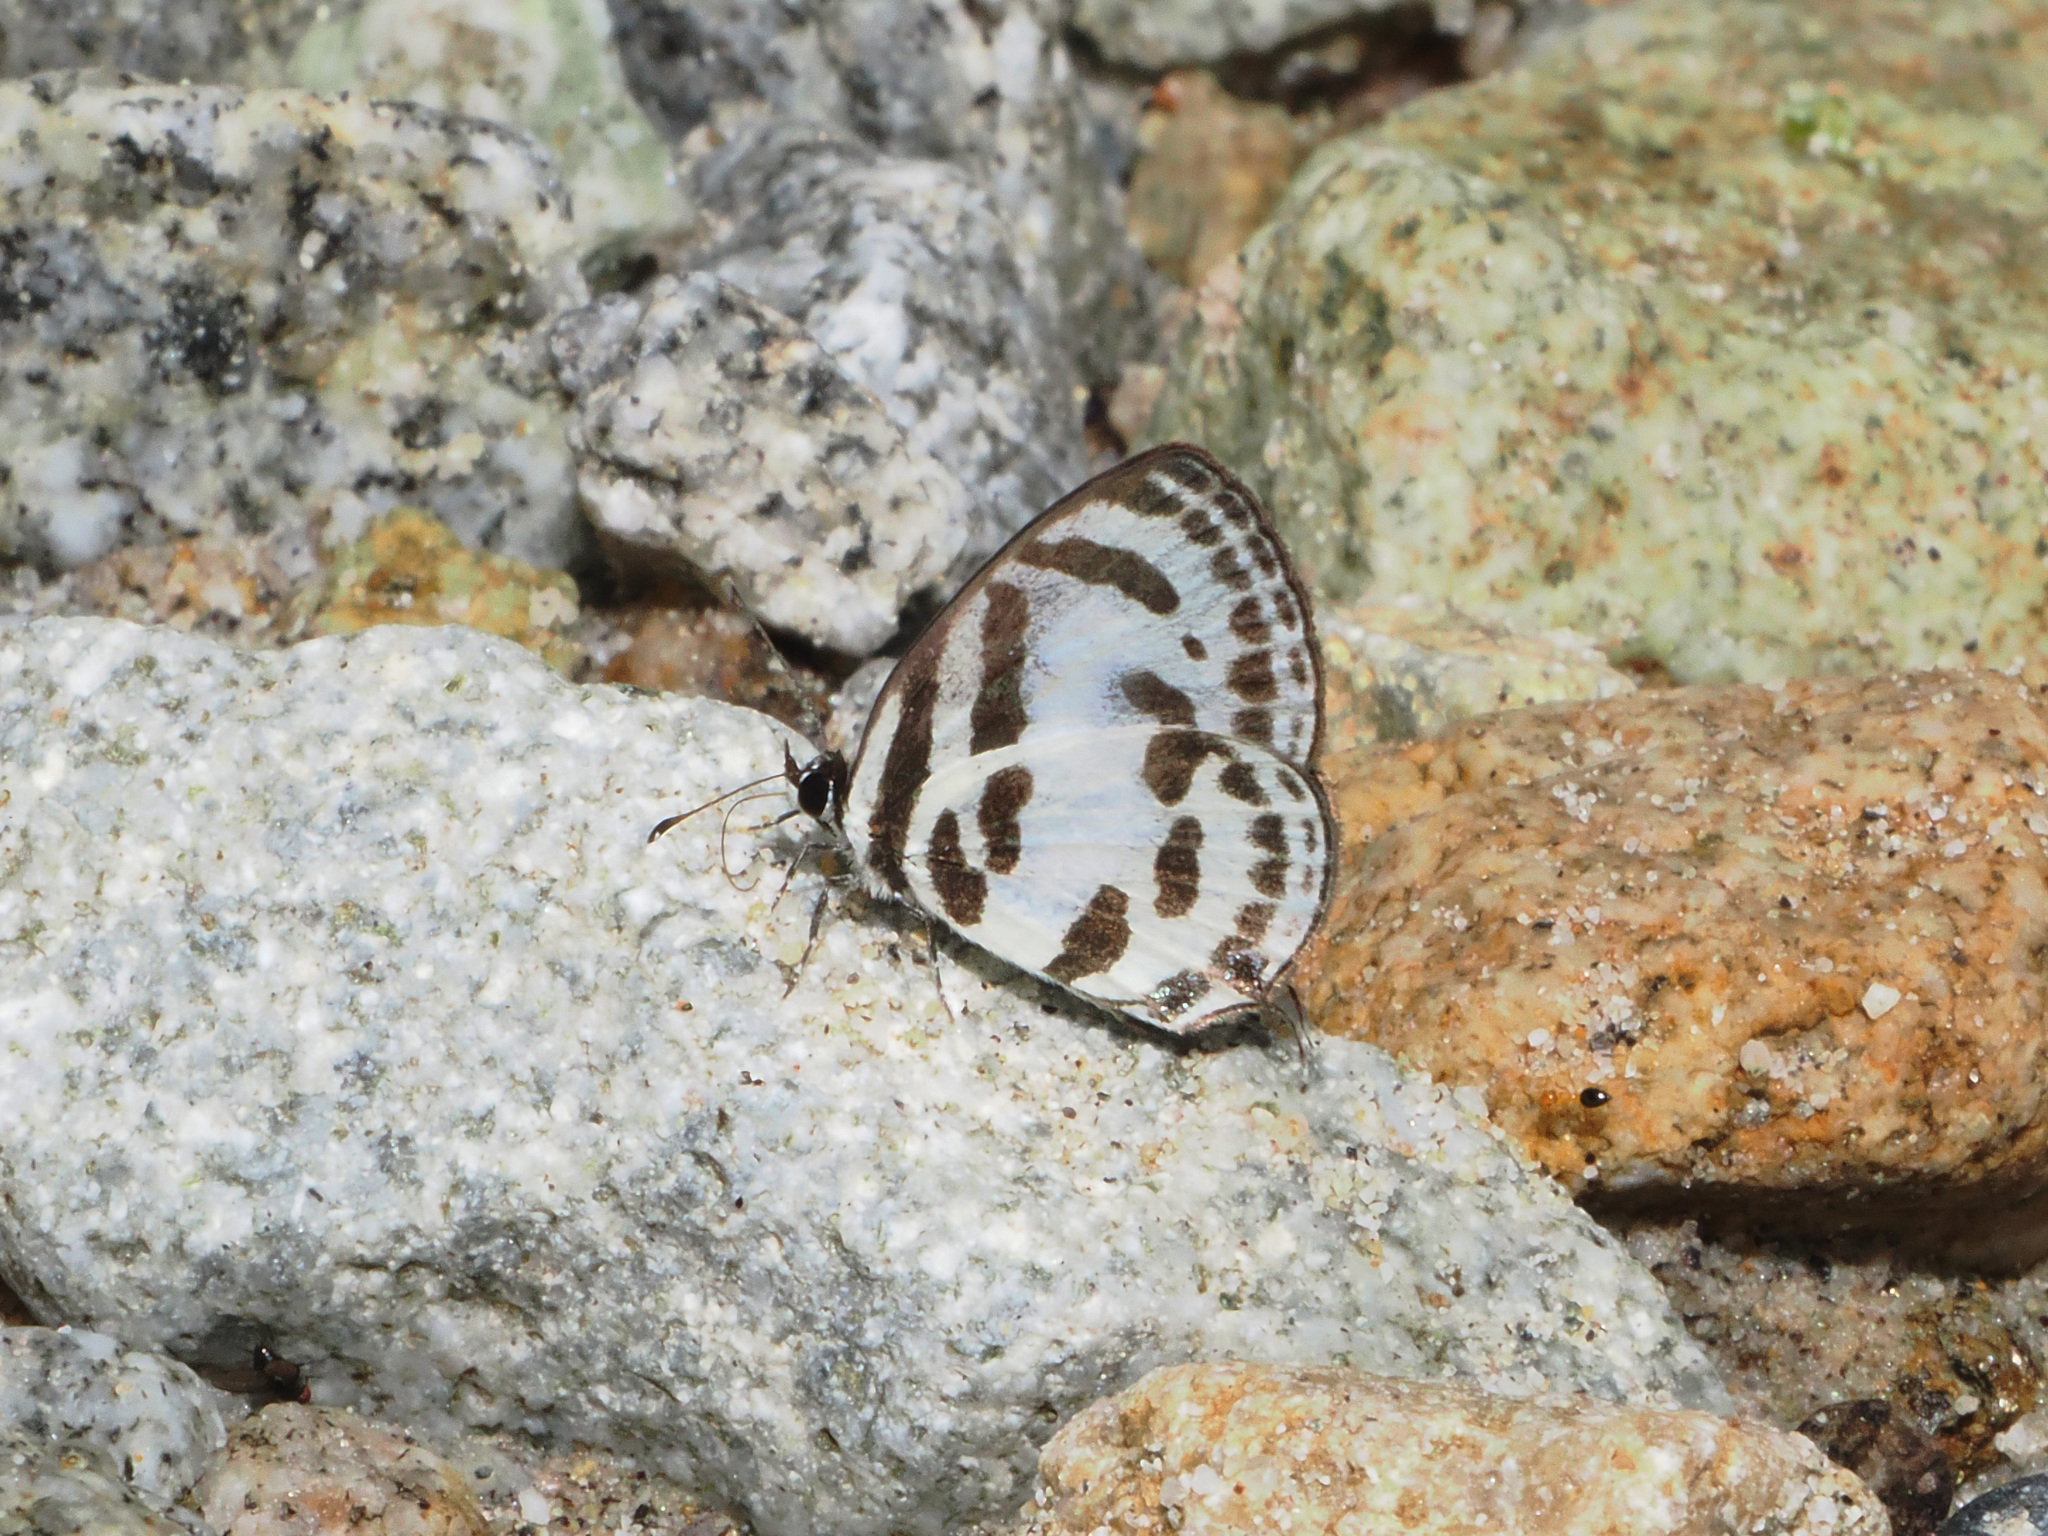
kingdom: Animalia
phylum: Arthropoda
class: Insecta
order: Lepidoptera
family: Lycaenidae
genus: Discolampa
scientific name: Discolampa ethion
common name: Banded blue pierrot
